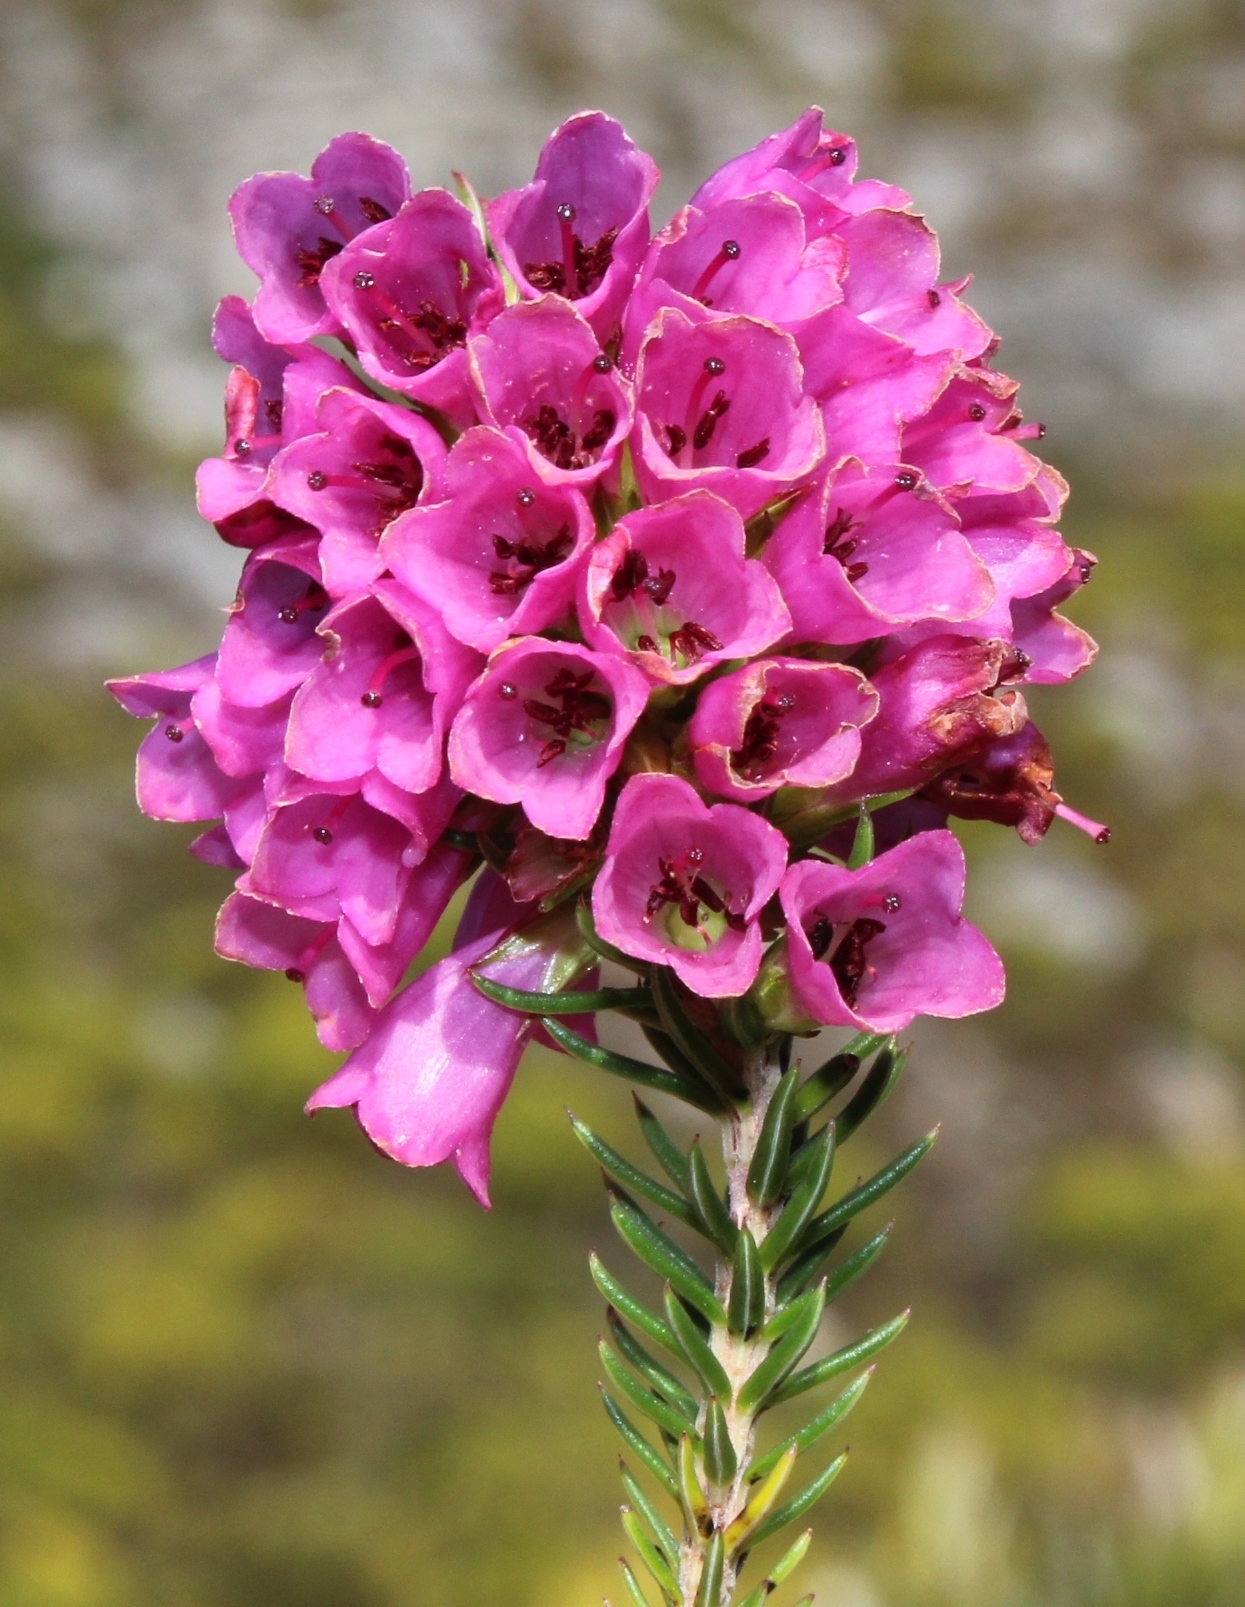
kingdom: Plantae
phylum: Tracheophyta
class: Magnoliopsida
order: Ericales
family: Ericaceae
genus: Erica
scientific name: Erica abietina
